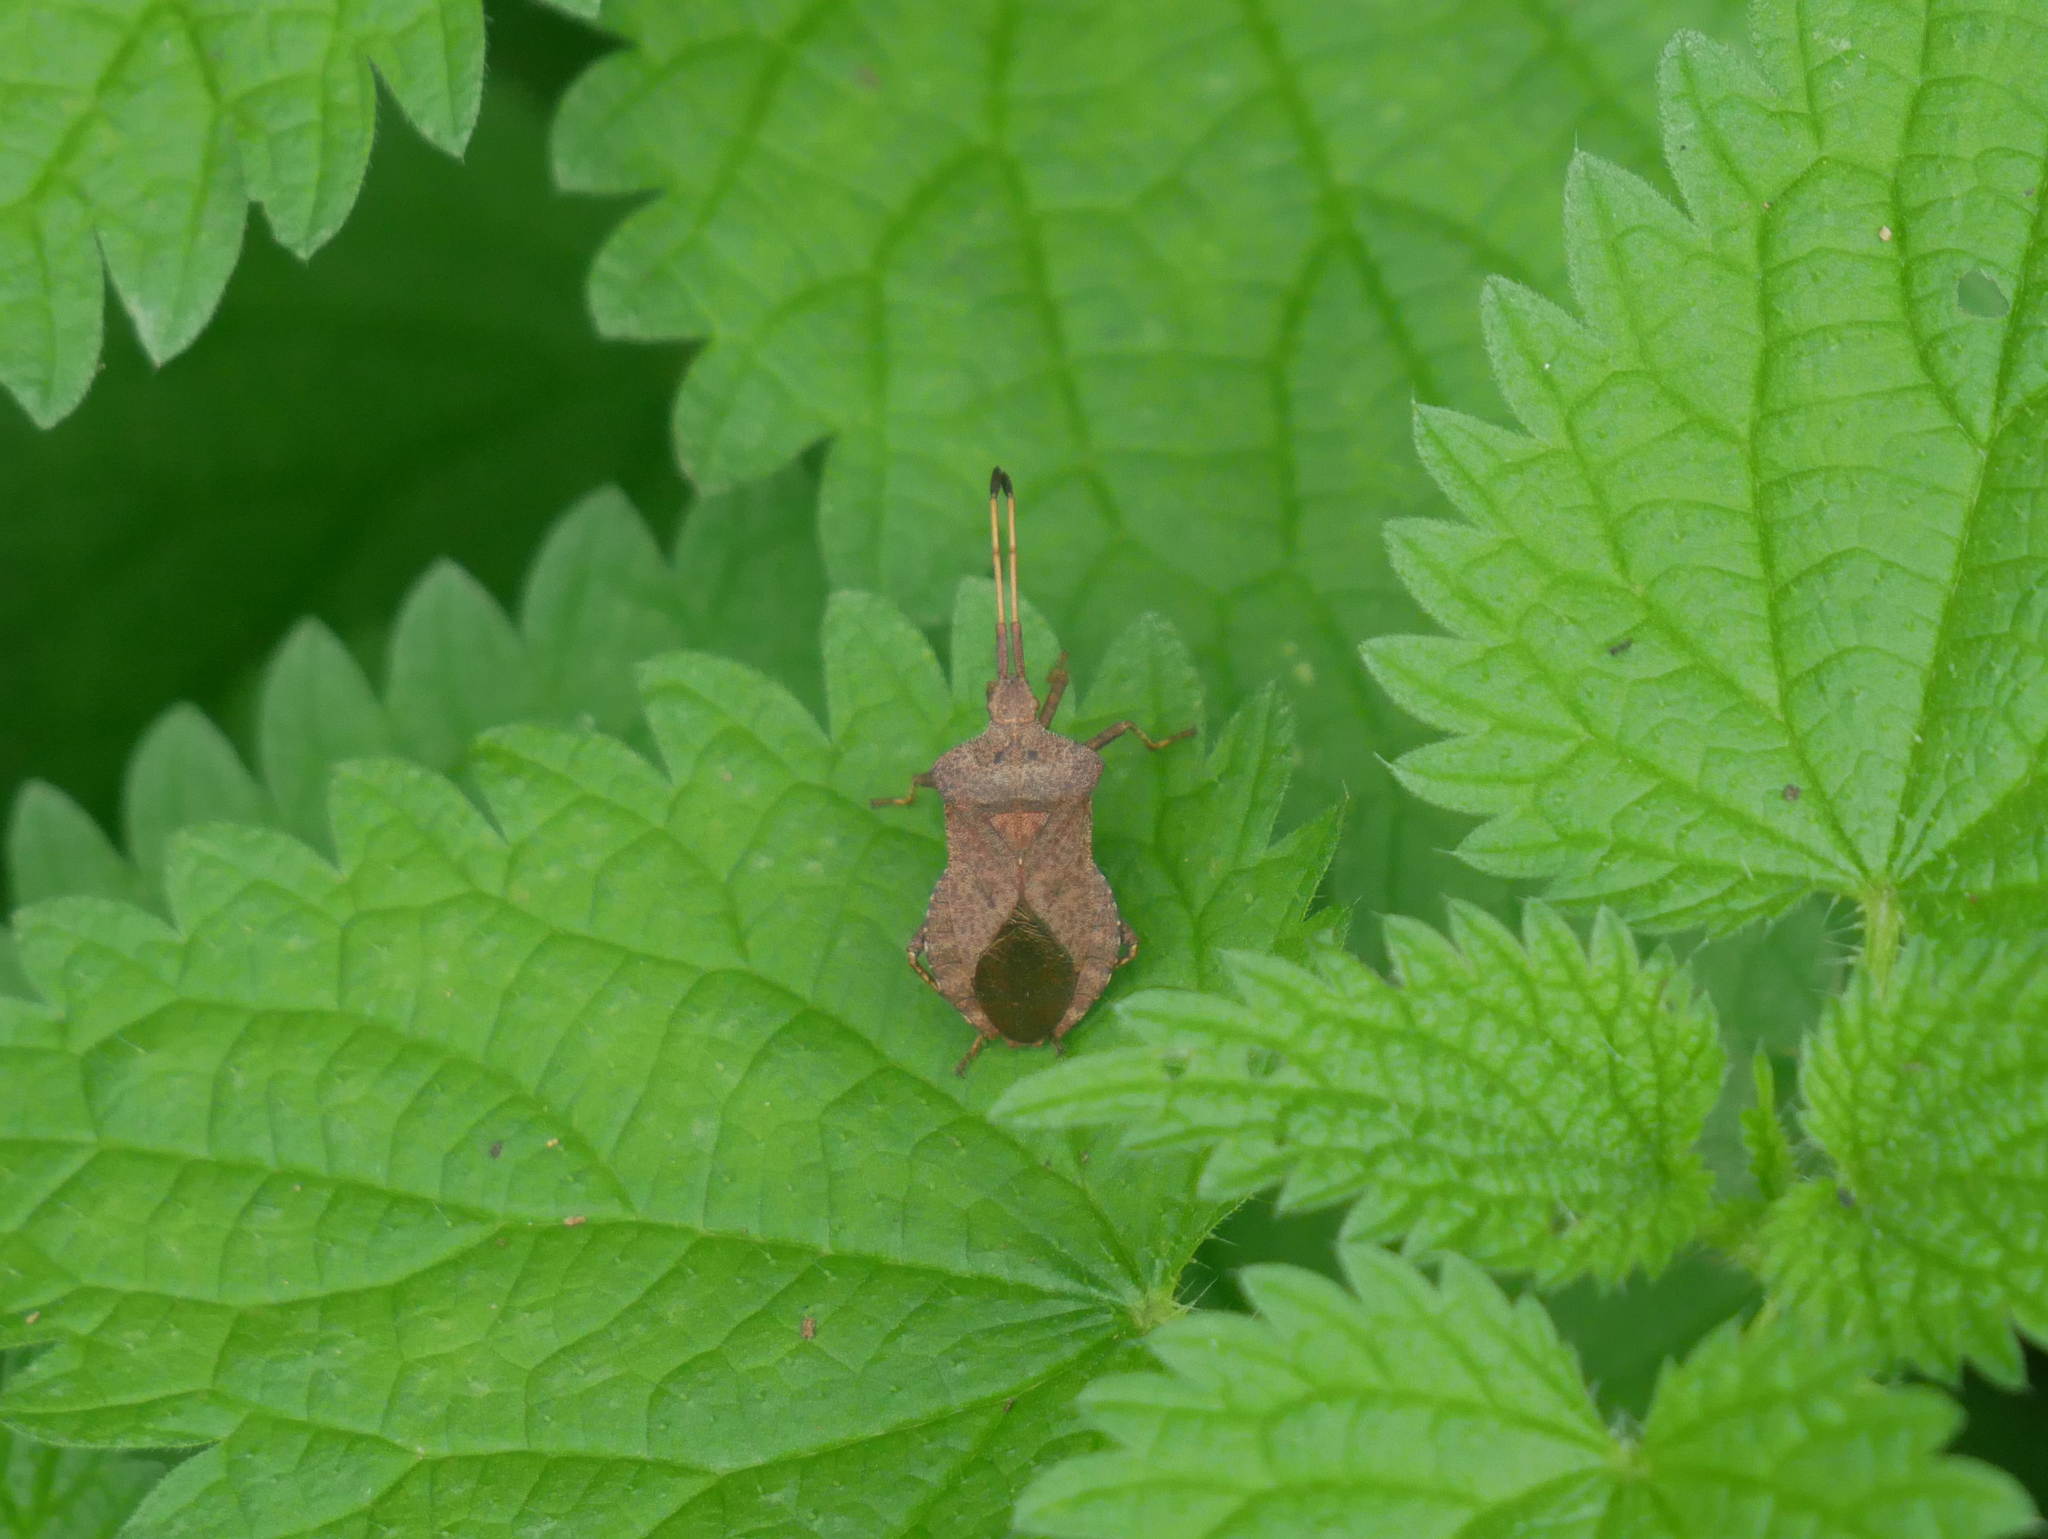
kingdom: Animalia
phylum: Arthropoda
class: Insecta
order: Hemiptera
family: Coreidae
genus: Coreus
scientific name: Coreus marginatus
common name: Dock bug
